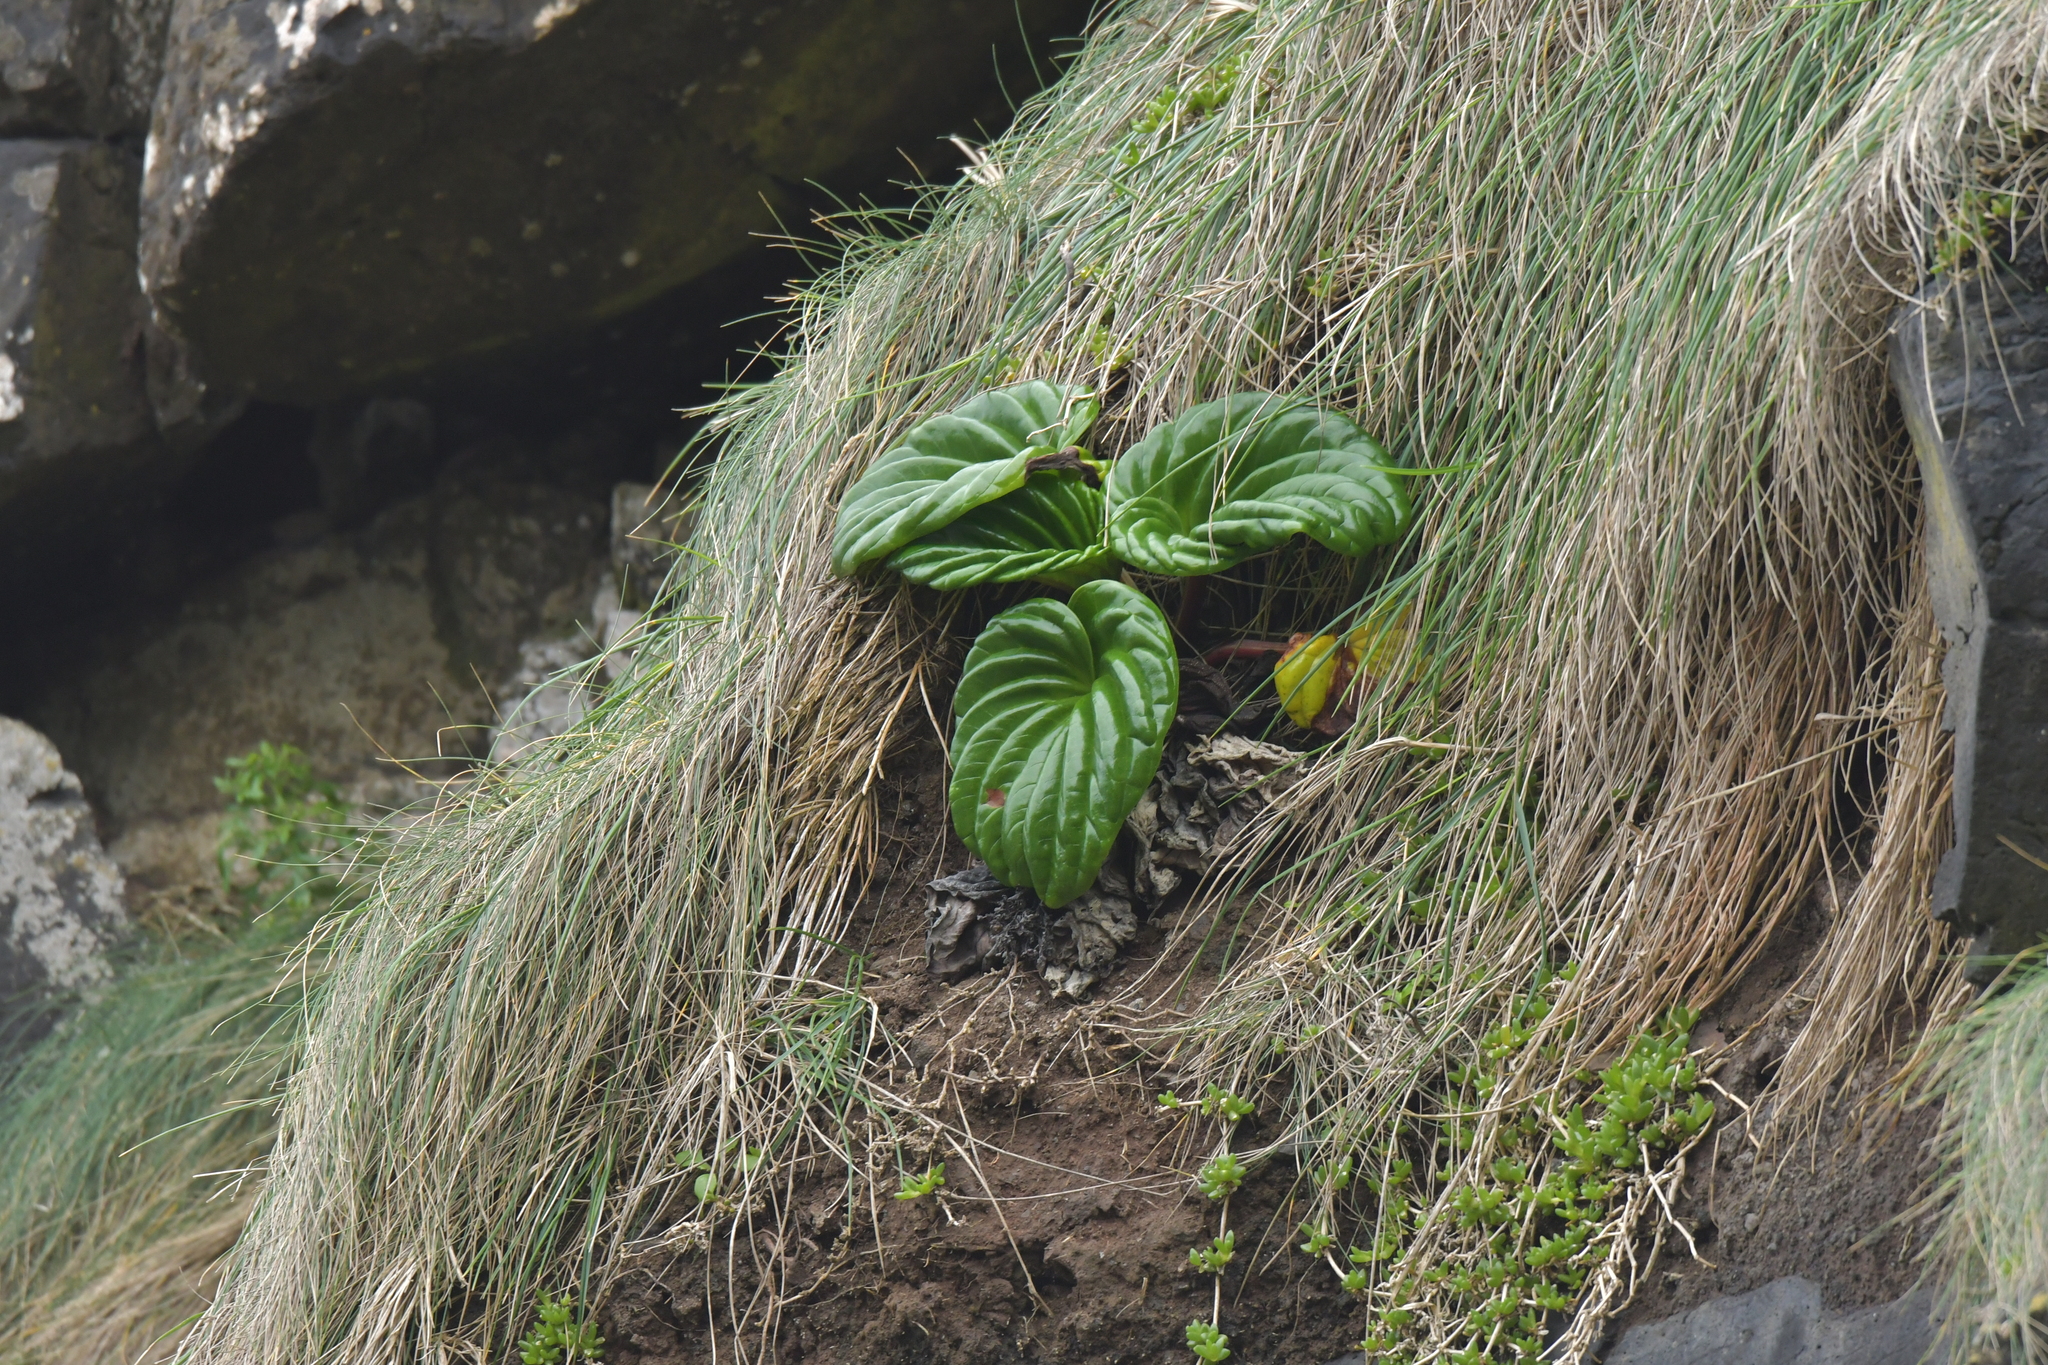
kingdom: Plantae
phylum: Tracheophyta
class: Magnoliopsida
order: Boraginales
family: Boraginaceae
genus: Myosotidium
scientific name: Myosotidium hortensia
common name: Giant forget-me-not
